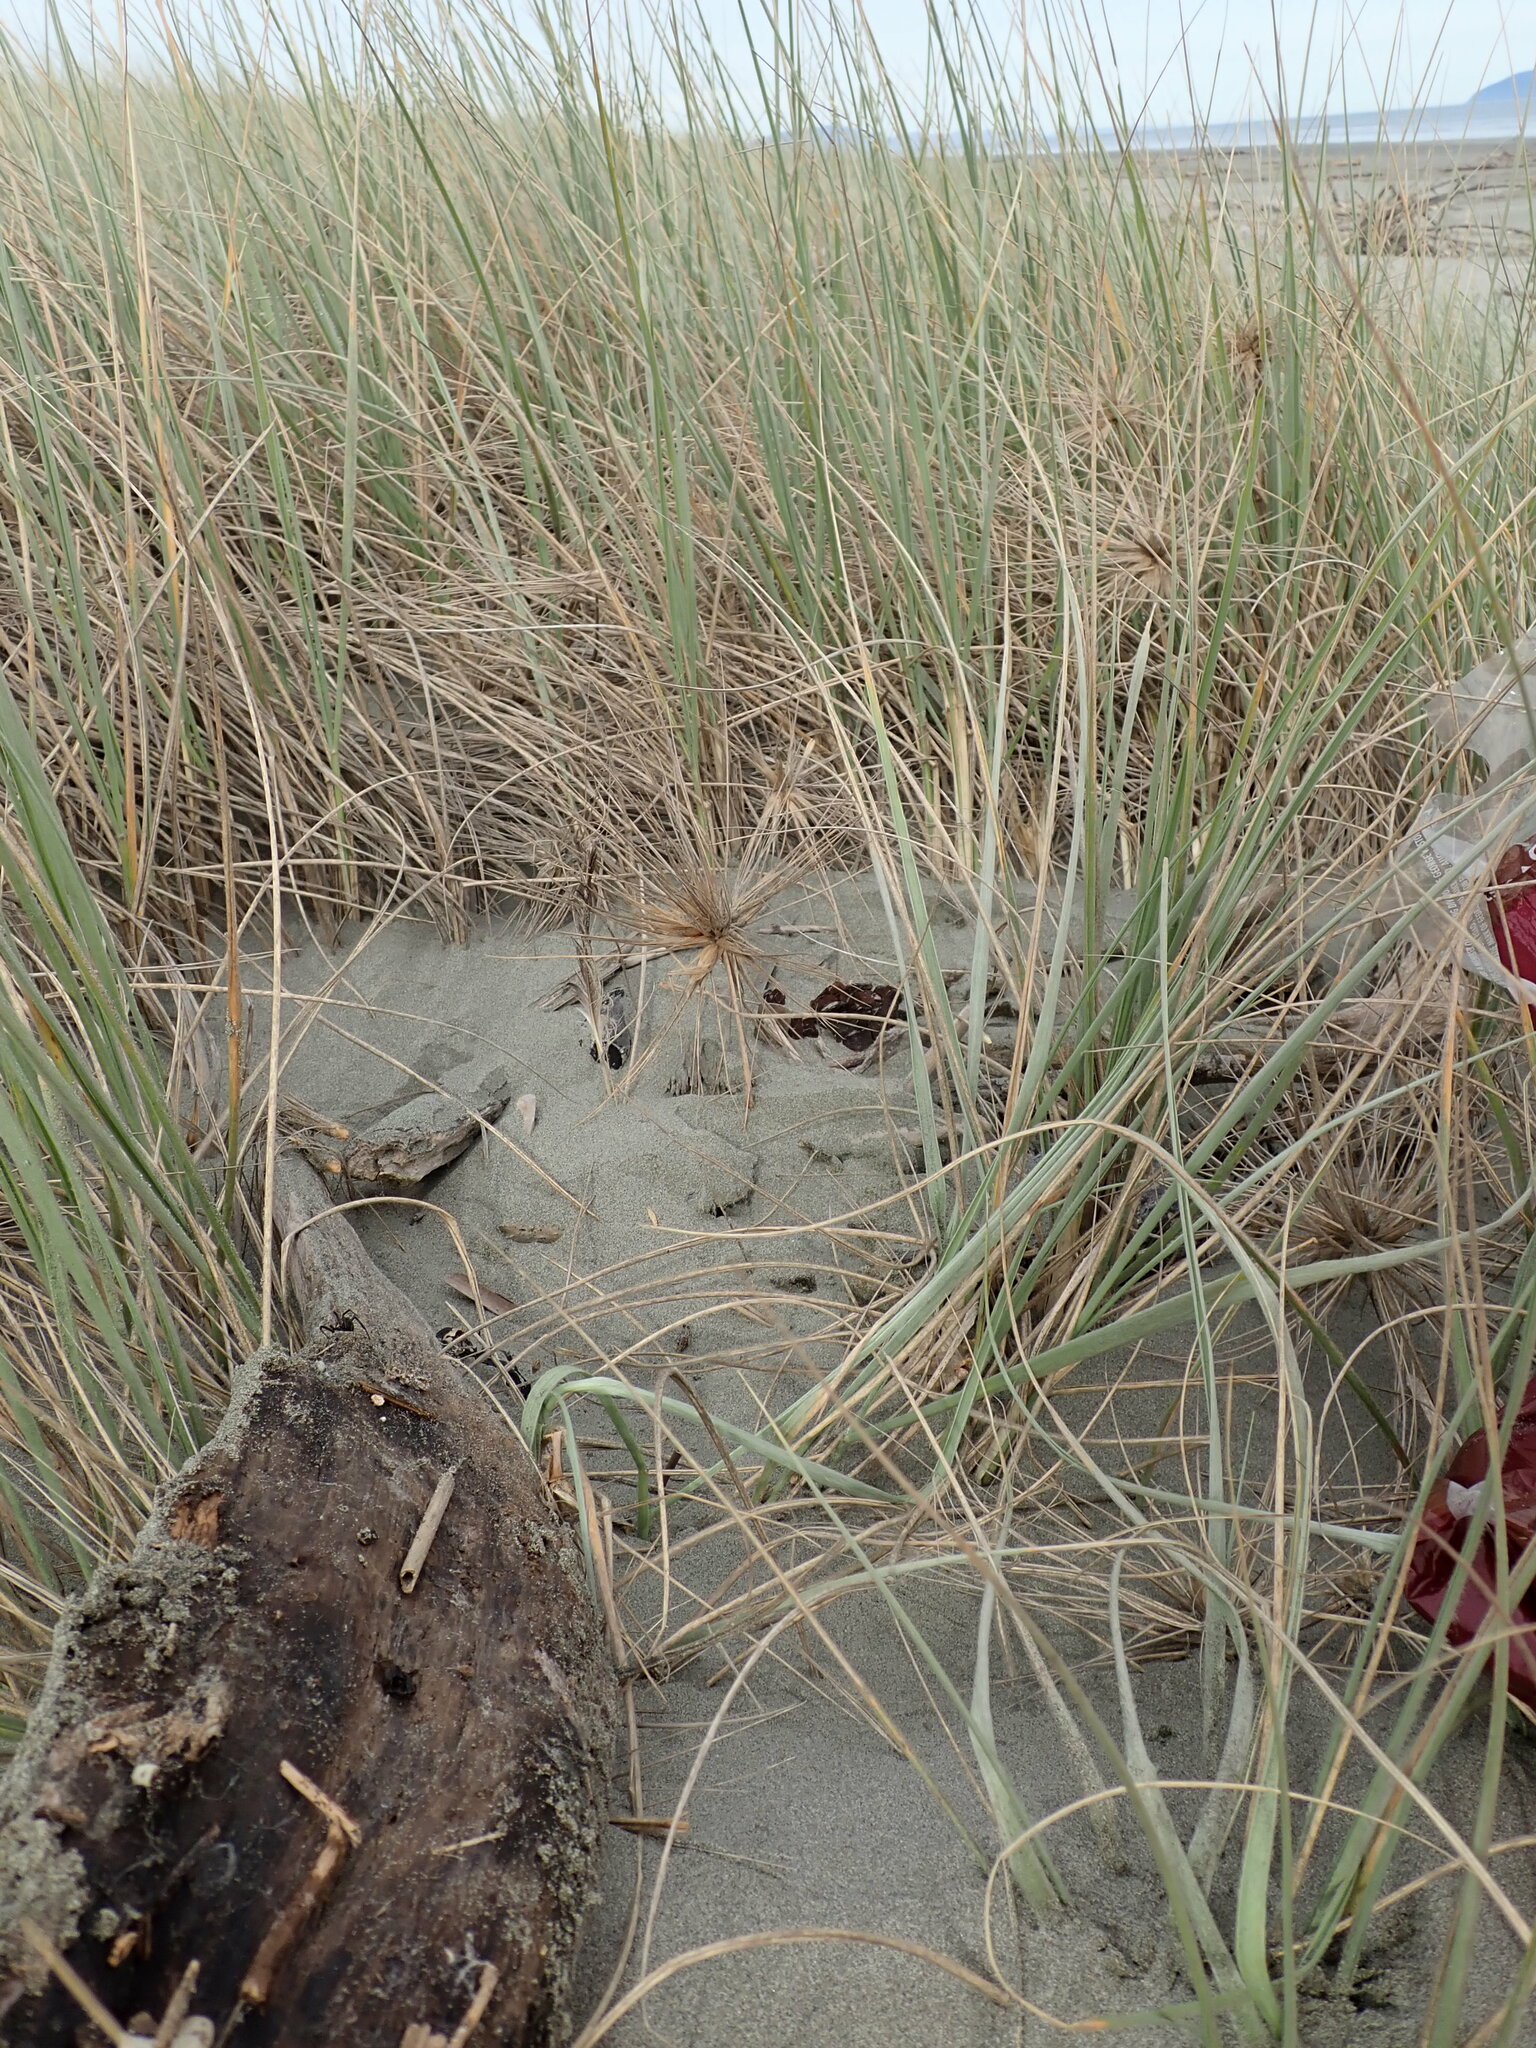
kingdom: Animalia
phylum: Arthropoda
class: Arachnida
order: Araneae
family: Theridiidae
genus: Latrodectus
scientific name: Latrodectus katipo
